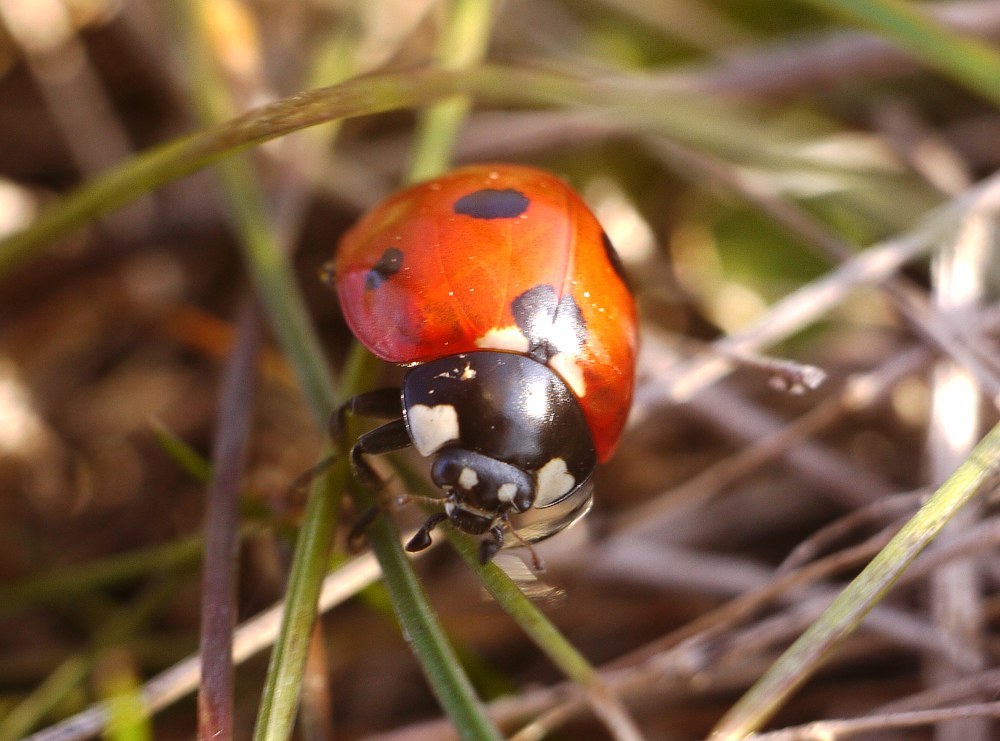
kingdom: Animalia
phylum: Arthropoda
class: Insecta
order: Coleoptera
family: Coccinellidae
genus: Coccinella
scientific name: Coccinella septempunctata
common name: Sevenspotted lady beetle
